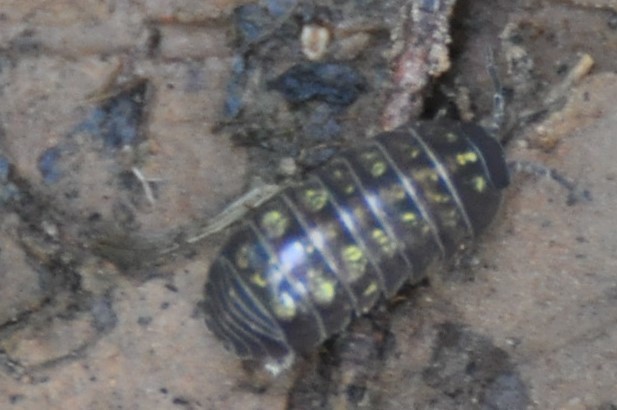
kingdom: Animalia
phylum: Arthropoda
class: Malacostraca
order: Isopoda
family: Armadillidiidae
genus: Armadillidium
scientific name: Armadillidium vulgare
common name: Common pill woodlouse
